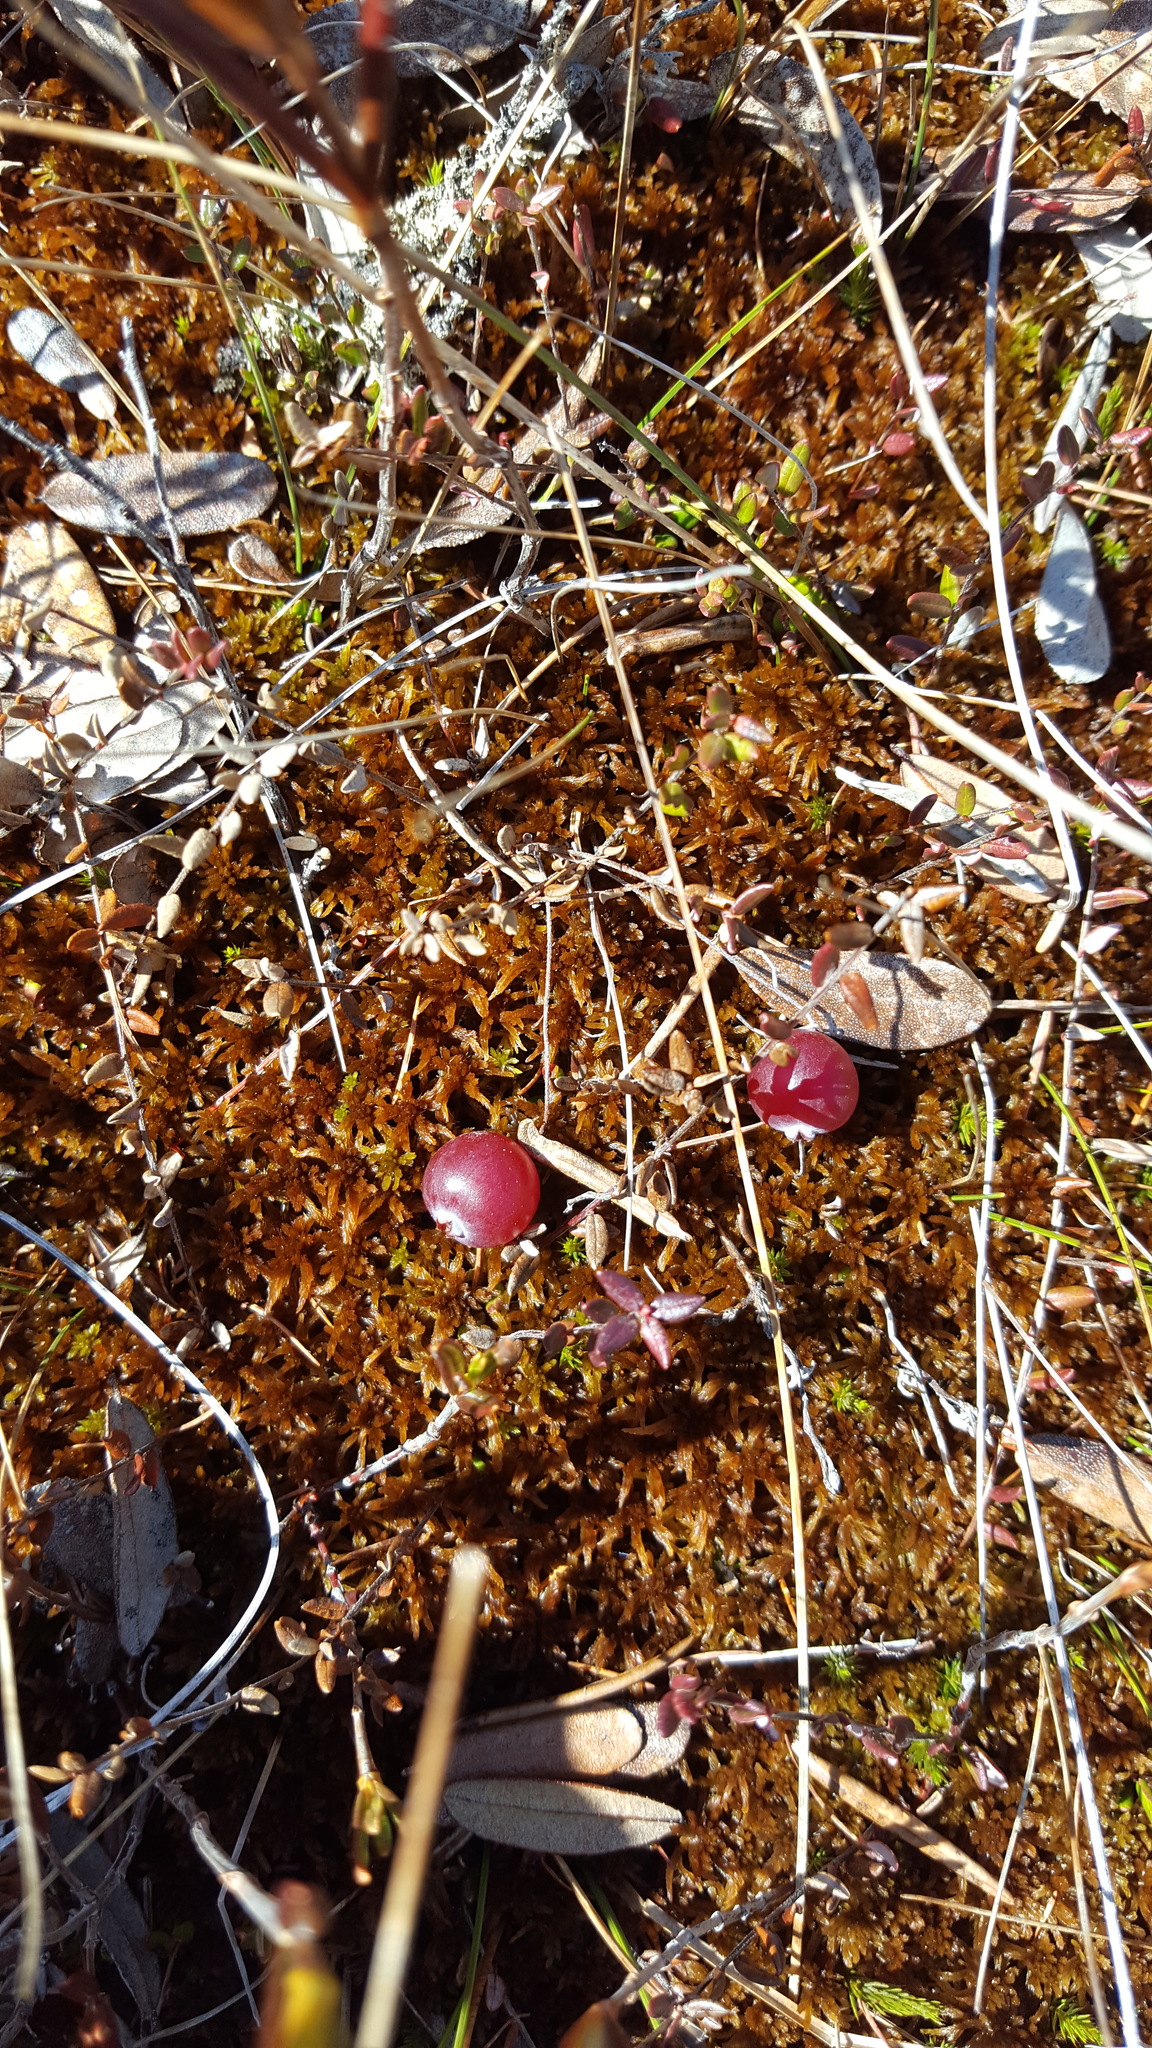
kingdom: Plantae
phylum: Tracheophyta
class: Magnoliopsida
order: Ericales
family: Ericaceae
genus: Vaccinium
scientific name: Vaccinium oxycoccos
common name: Cranberry
